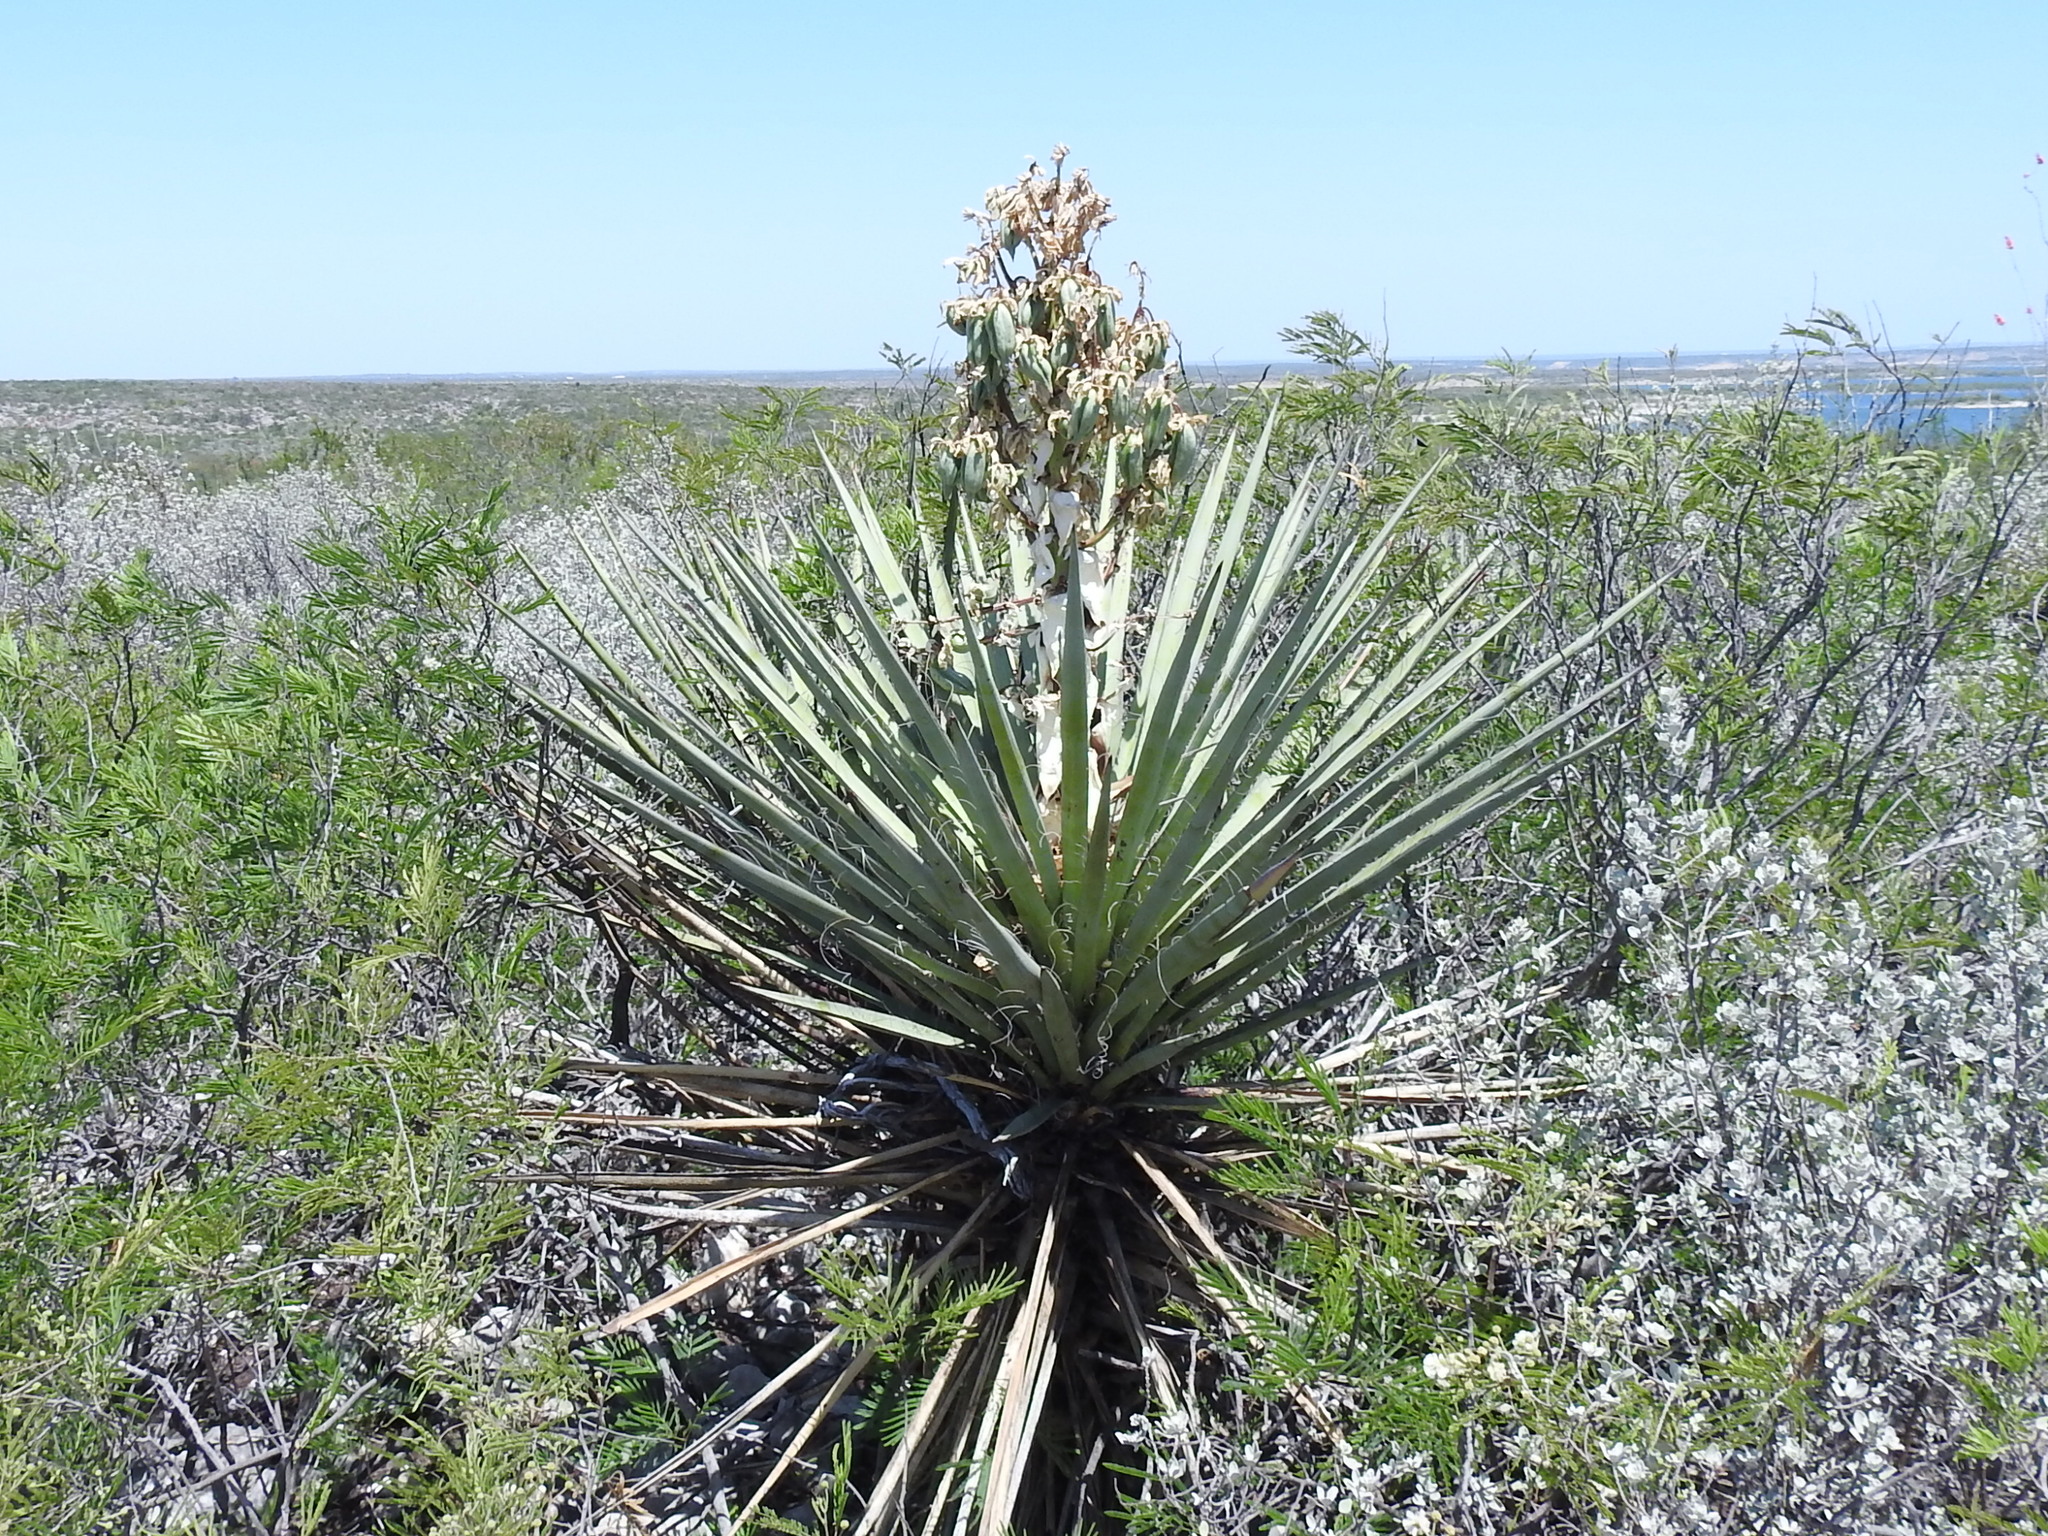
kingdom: Plantae
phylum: Tracheophyta
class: Liliopsida
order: Asparagales
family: Asparagaceae
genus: Yucca
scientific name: Yucca treculiana
